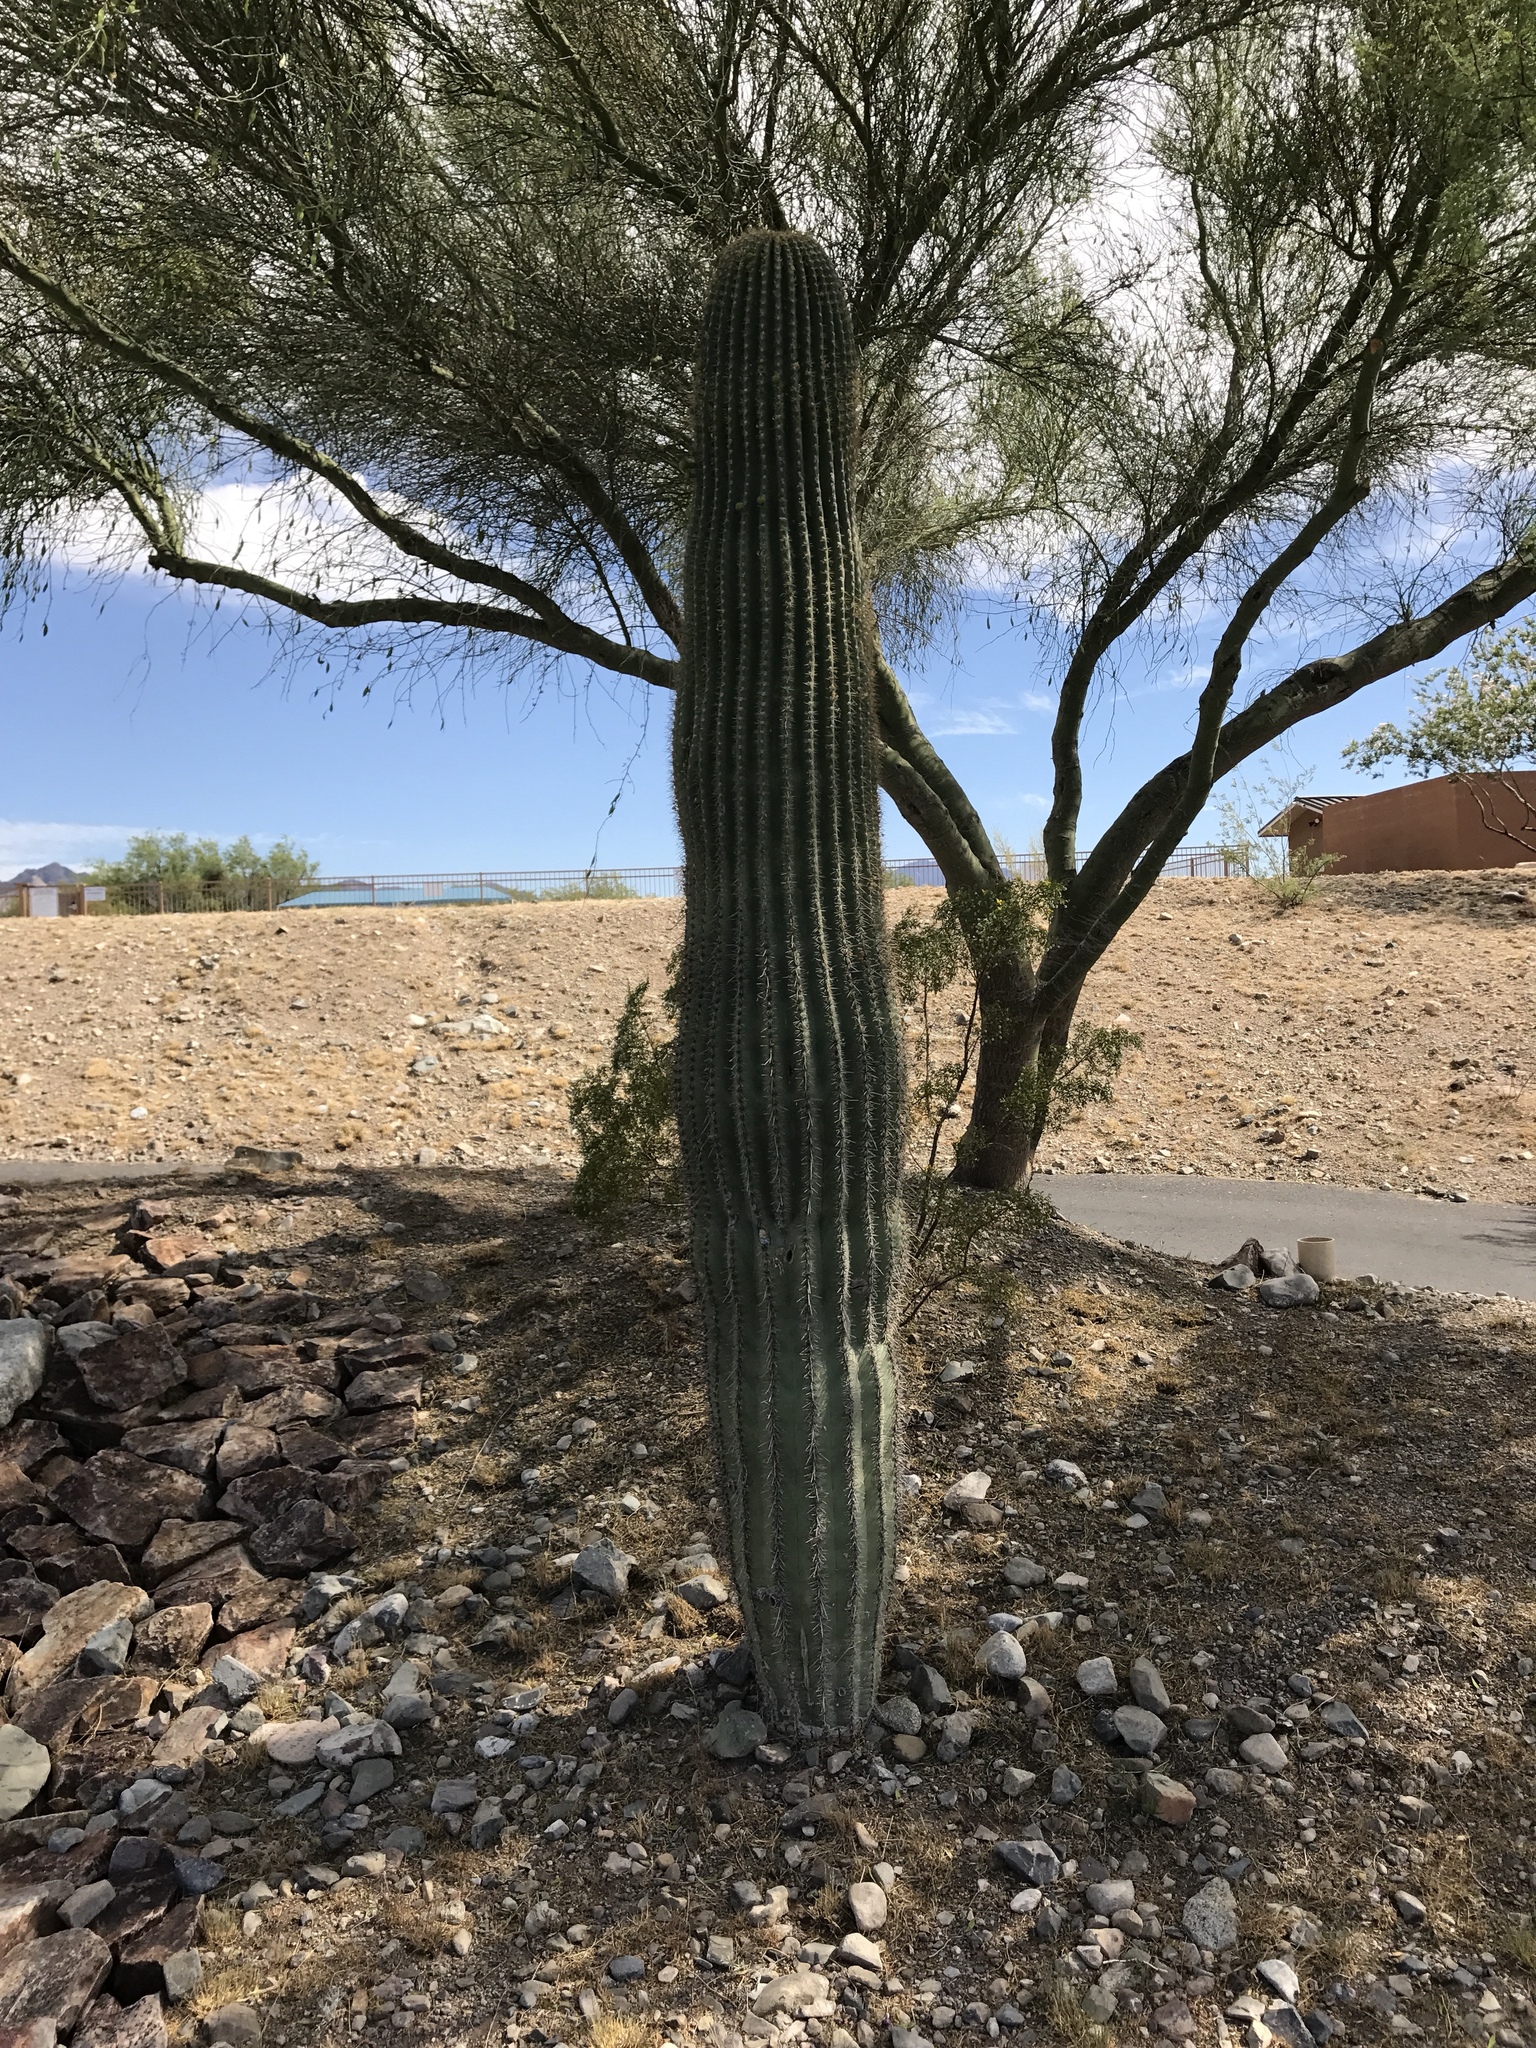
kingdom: Plantae
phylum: Tracheophyta
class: Magnoliopsida
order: Caryophyllales
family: Cactaceae
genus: Carnegiea
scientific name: Carnegiea gigantea
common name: Saguaro
